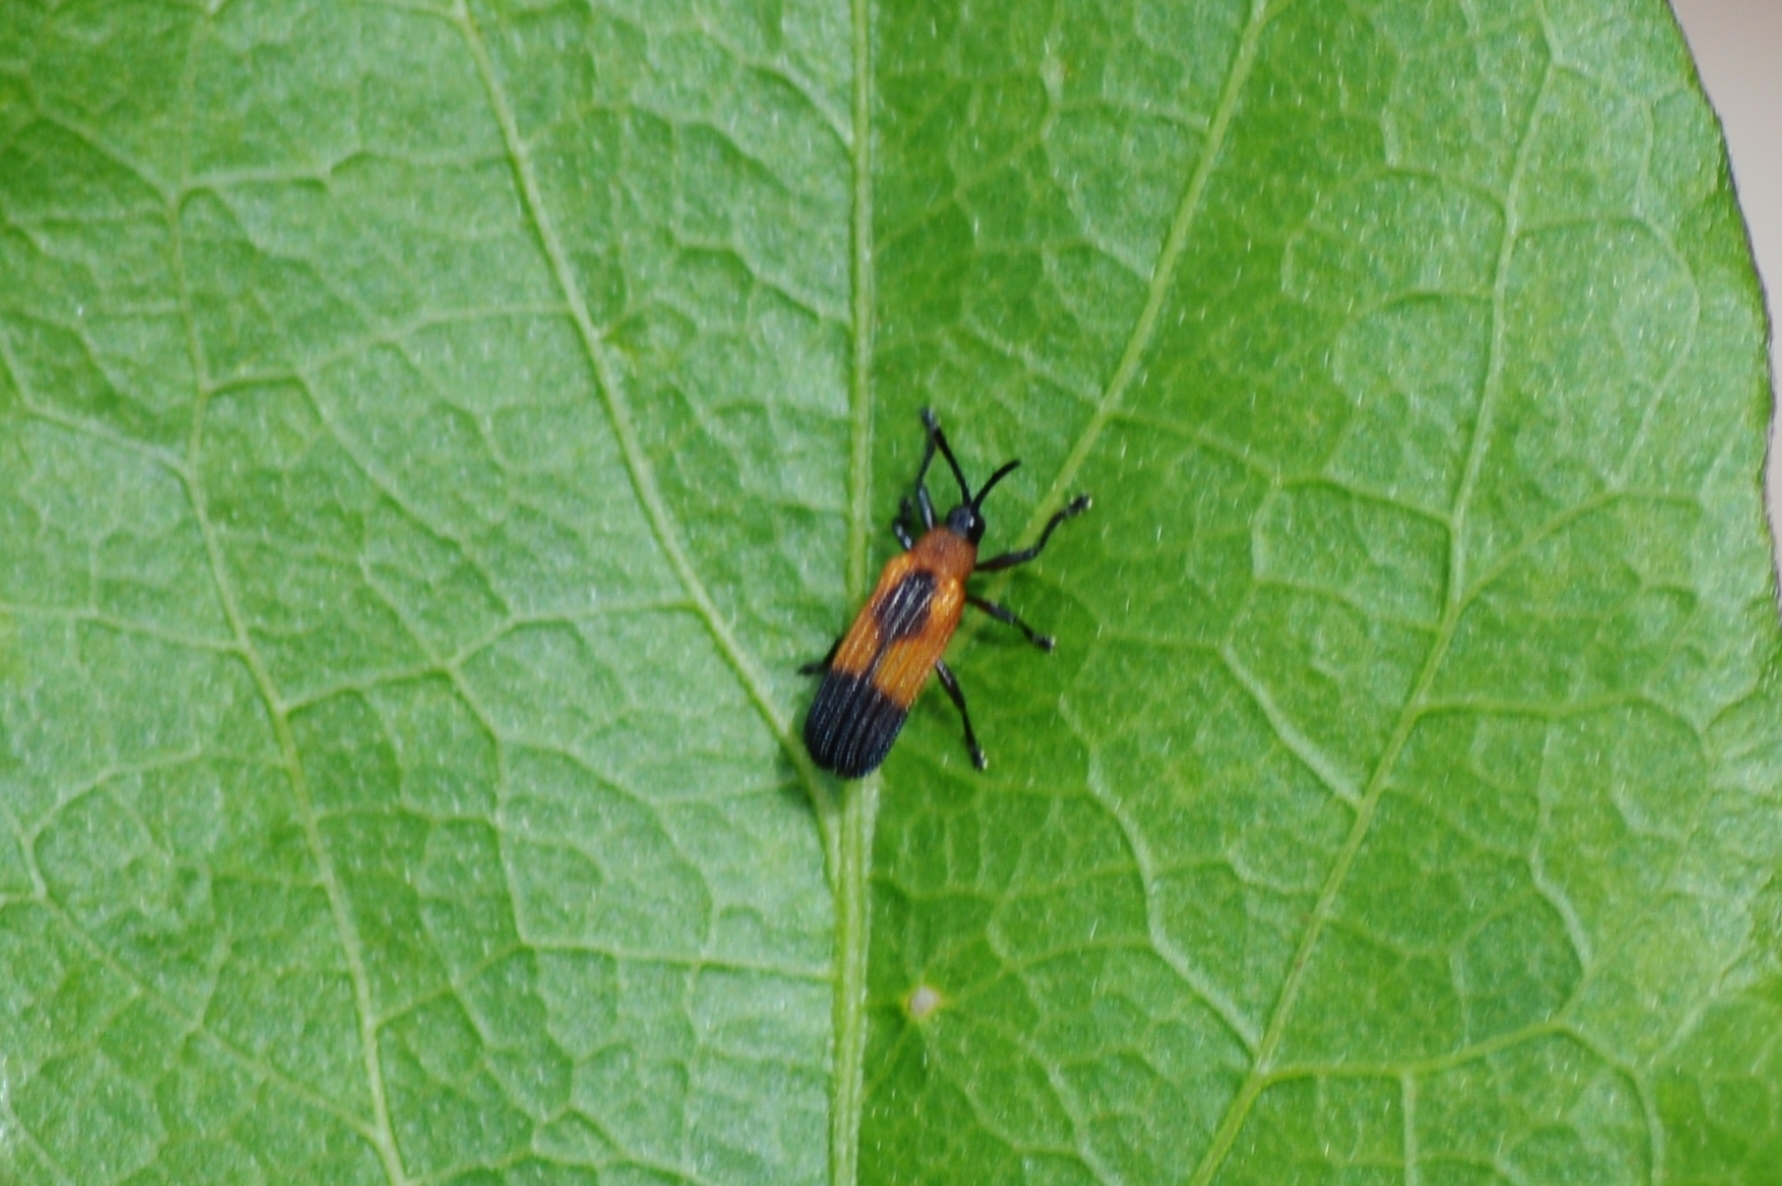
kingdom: Animalia
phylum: Arthropoda
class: Insecta
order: Coleoptera
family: Chrysomelidae
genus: Chalepus
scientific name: Chalepus putzeysi
